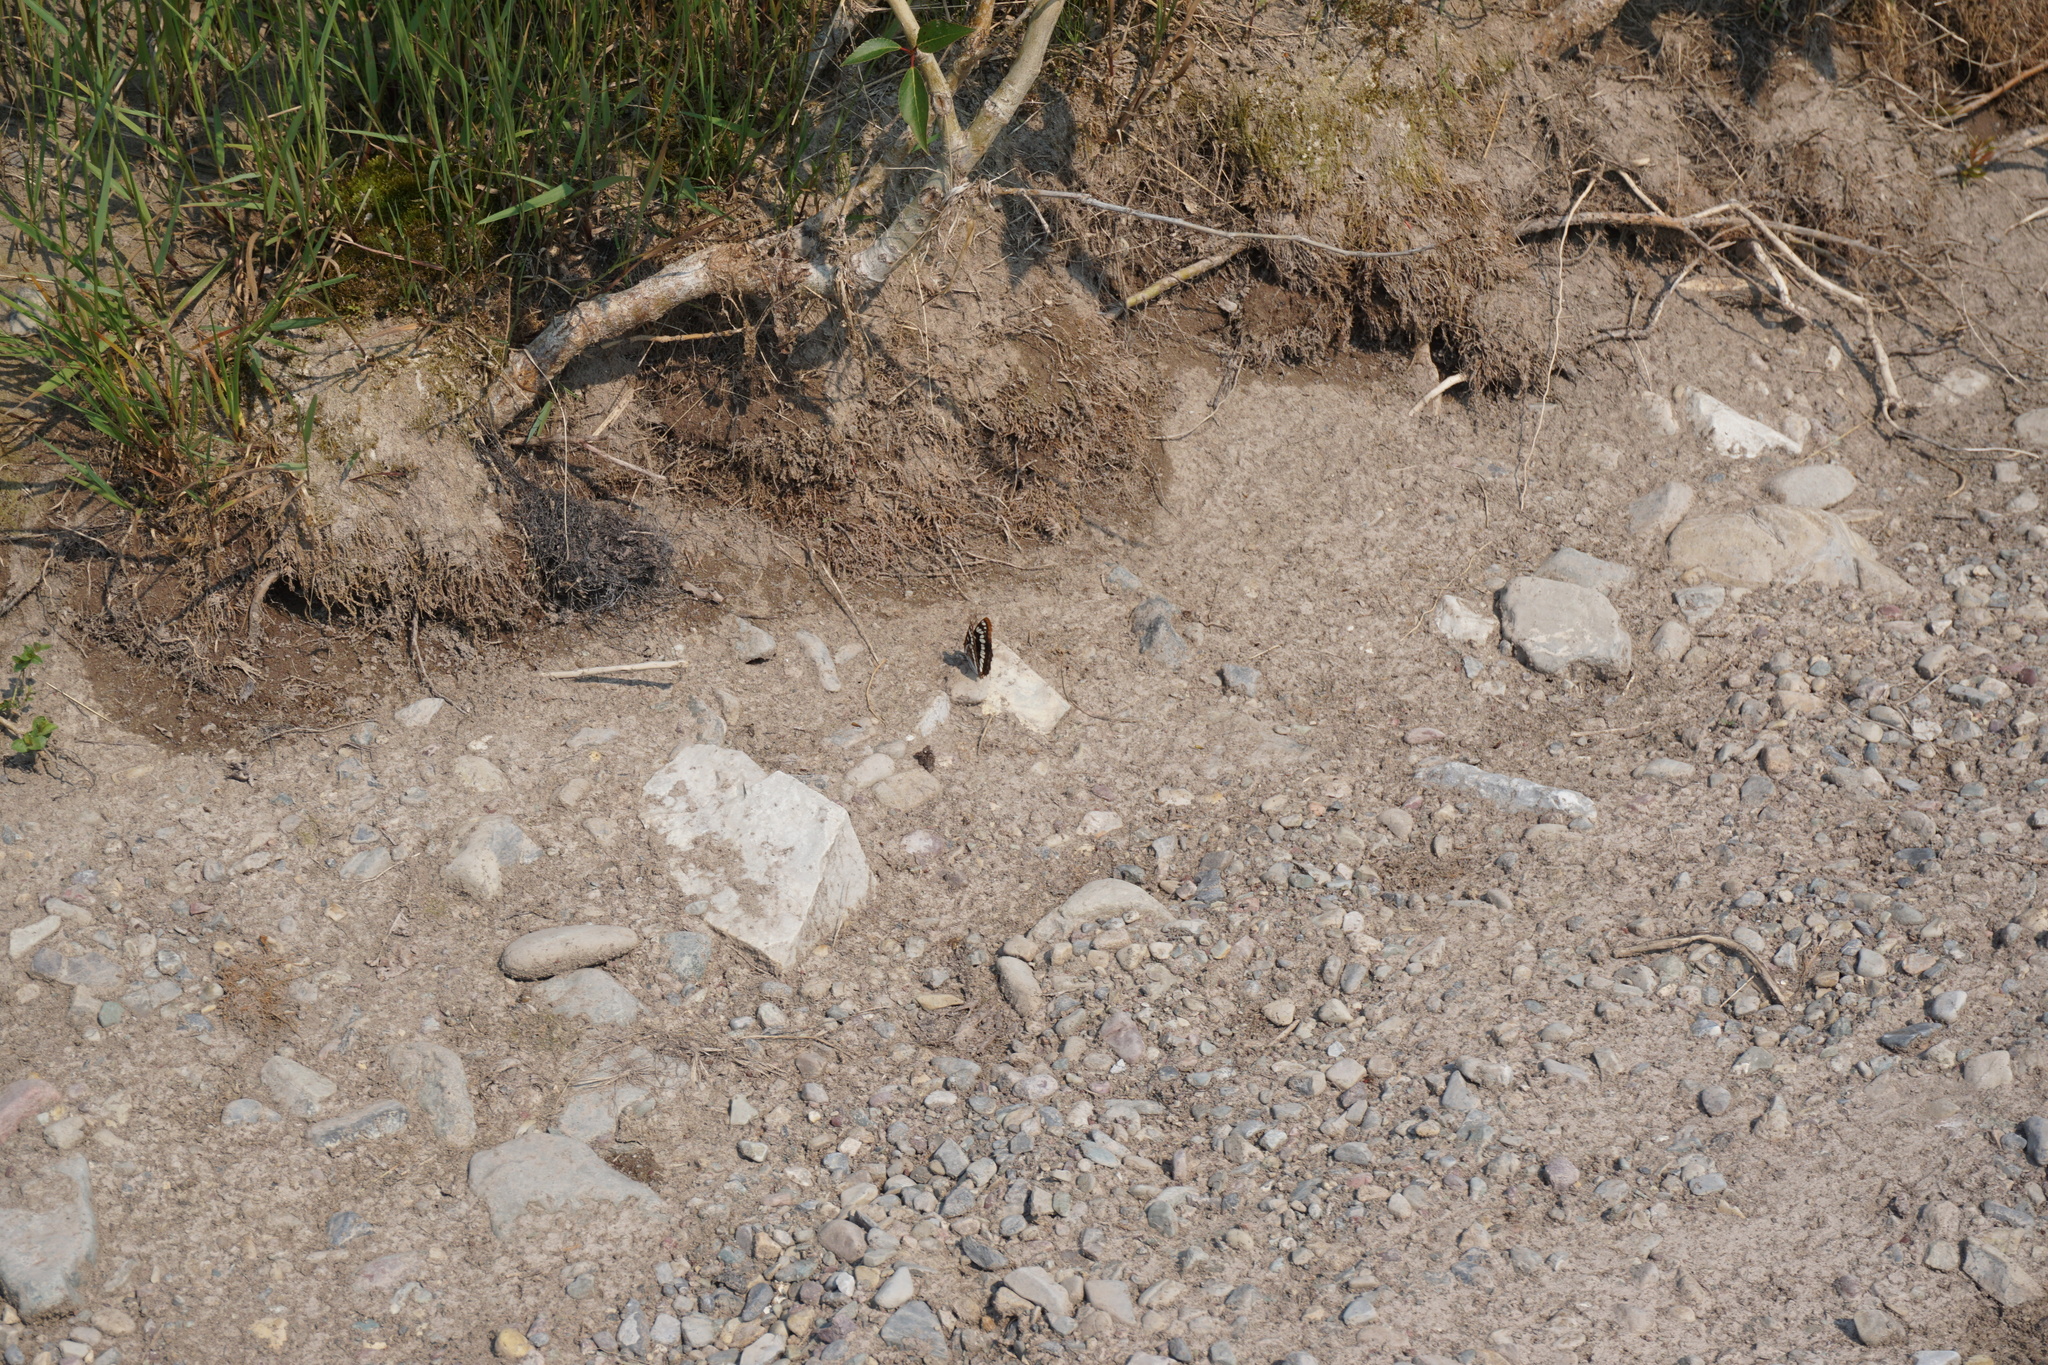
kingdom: Animalia
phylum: Arthropoda
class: Insecta
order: Lepidoptera
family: Nymphalidae
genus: Limenitis
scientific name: Limenitis lorquini
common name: Lorquin's admiral
